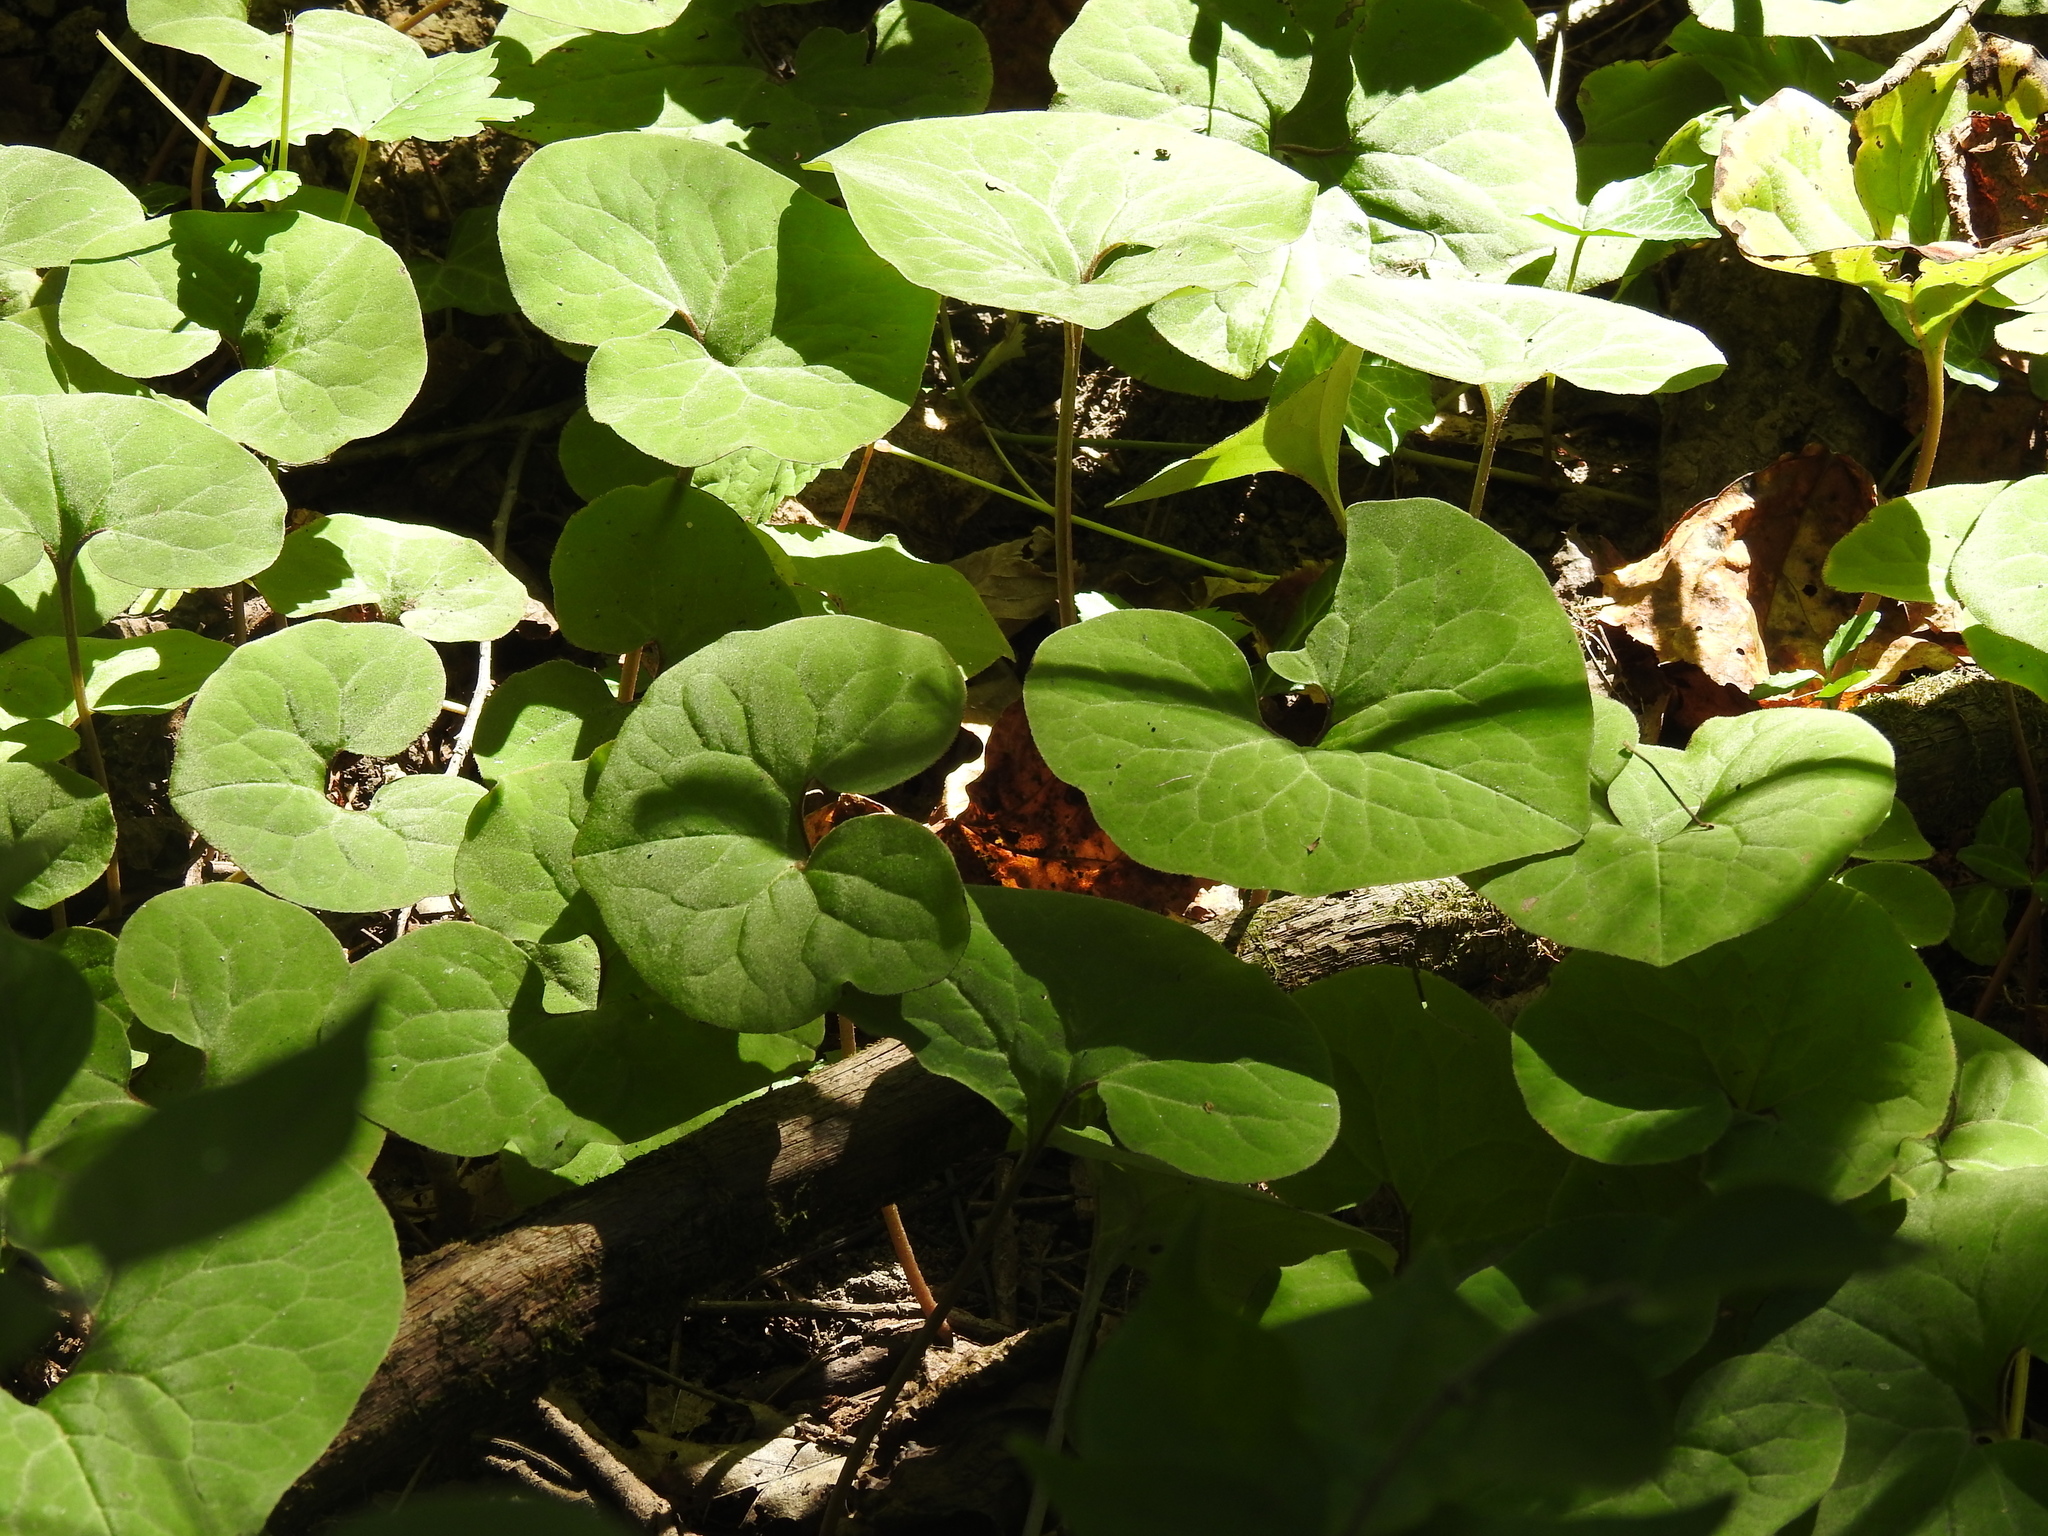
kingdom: Plantae
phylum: Tracheophyta
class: Magnoliopsida
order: Piperales
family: Aristolochiaceae
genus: Asarum
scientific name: Asarum canadense
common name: Wild ginger
